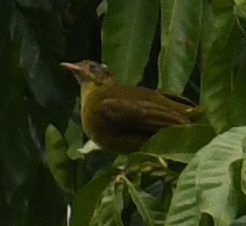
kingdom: Animalia
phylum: Chordata
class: Aves
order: Passeriformes
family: Pycnonotidae
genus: Calyptocichla
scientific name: Calyptocichla serinus
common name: Golden greenbul
